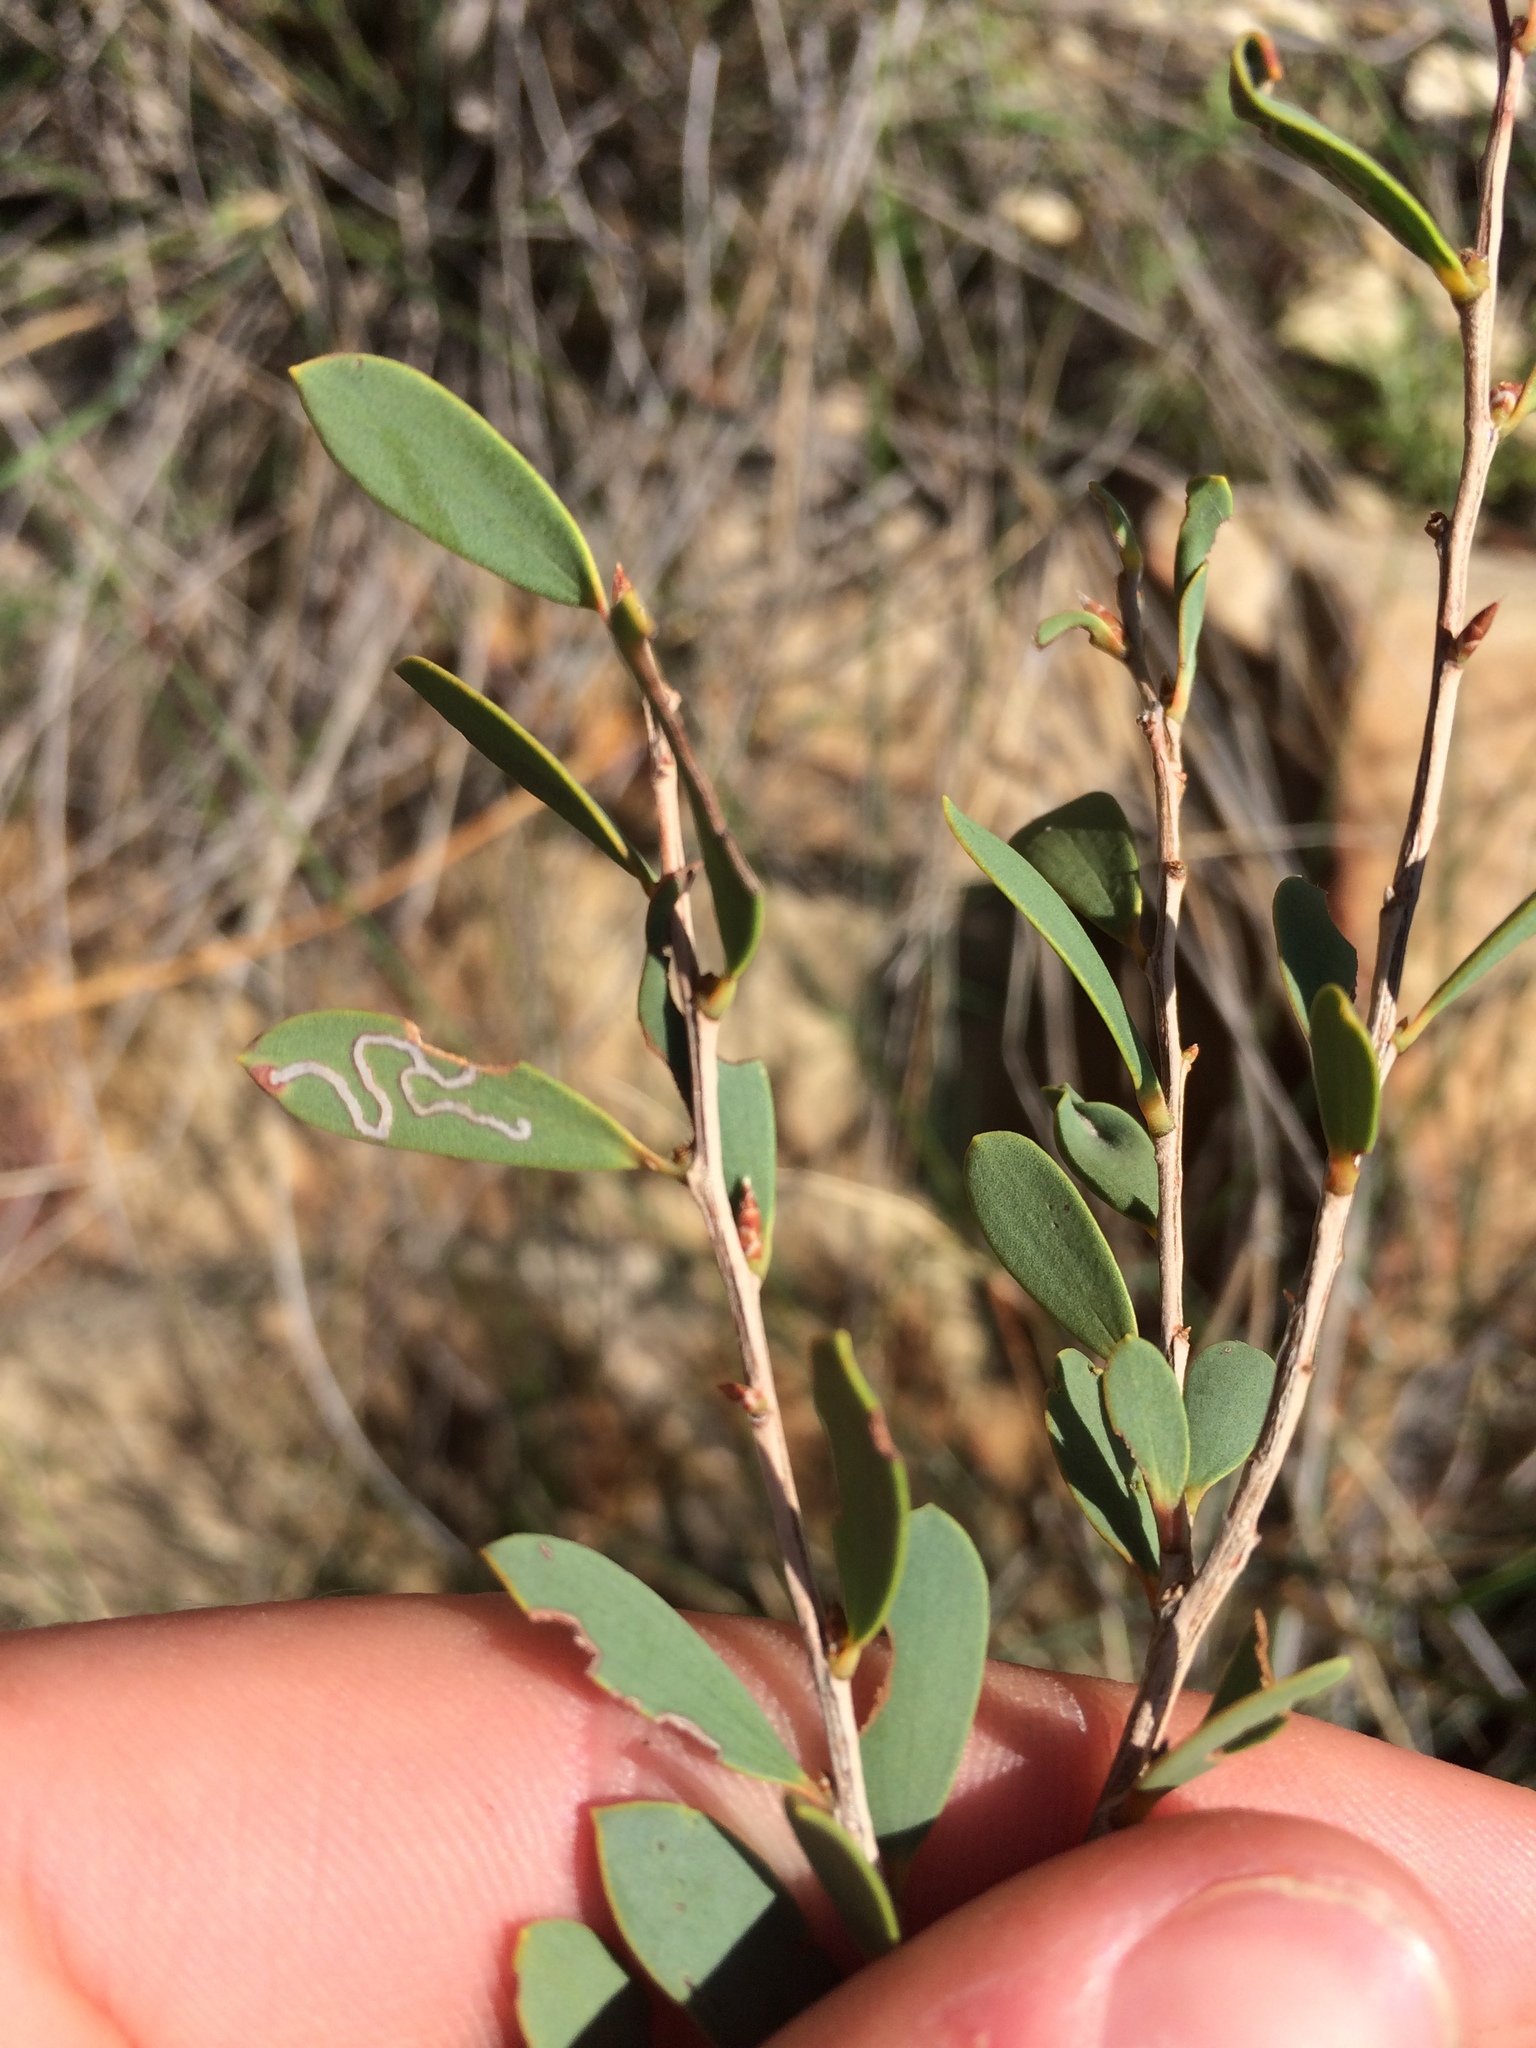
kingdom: Animalia
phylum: Arthropoda
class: Insecta
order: Lepidoptera
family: Gracillariidae
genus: Aristaea
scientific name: Aristaea thalassias
